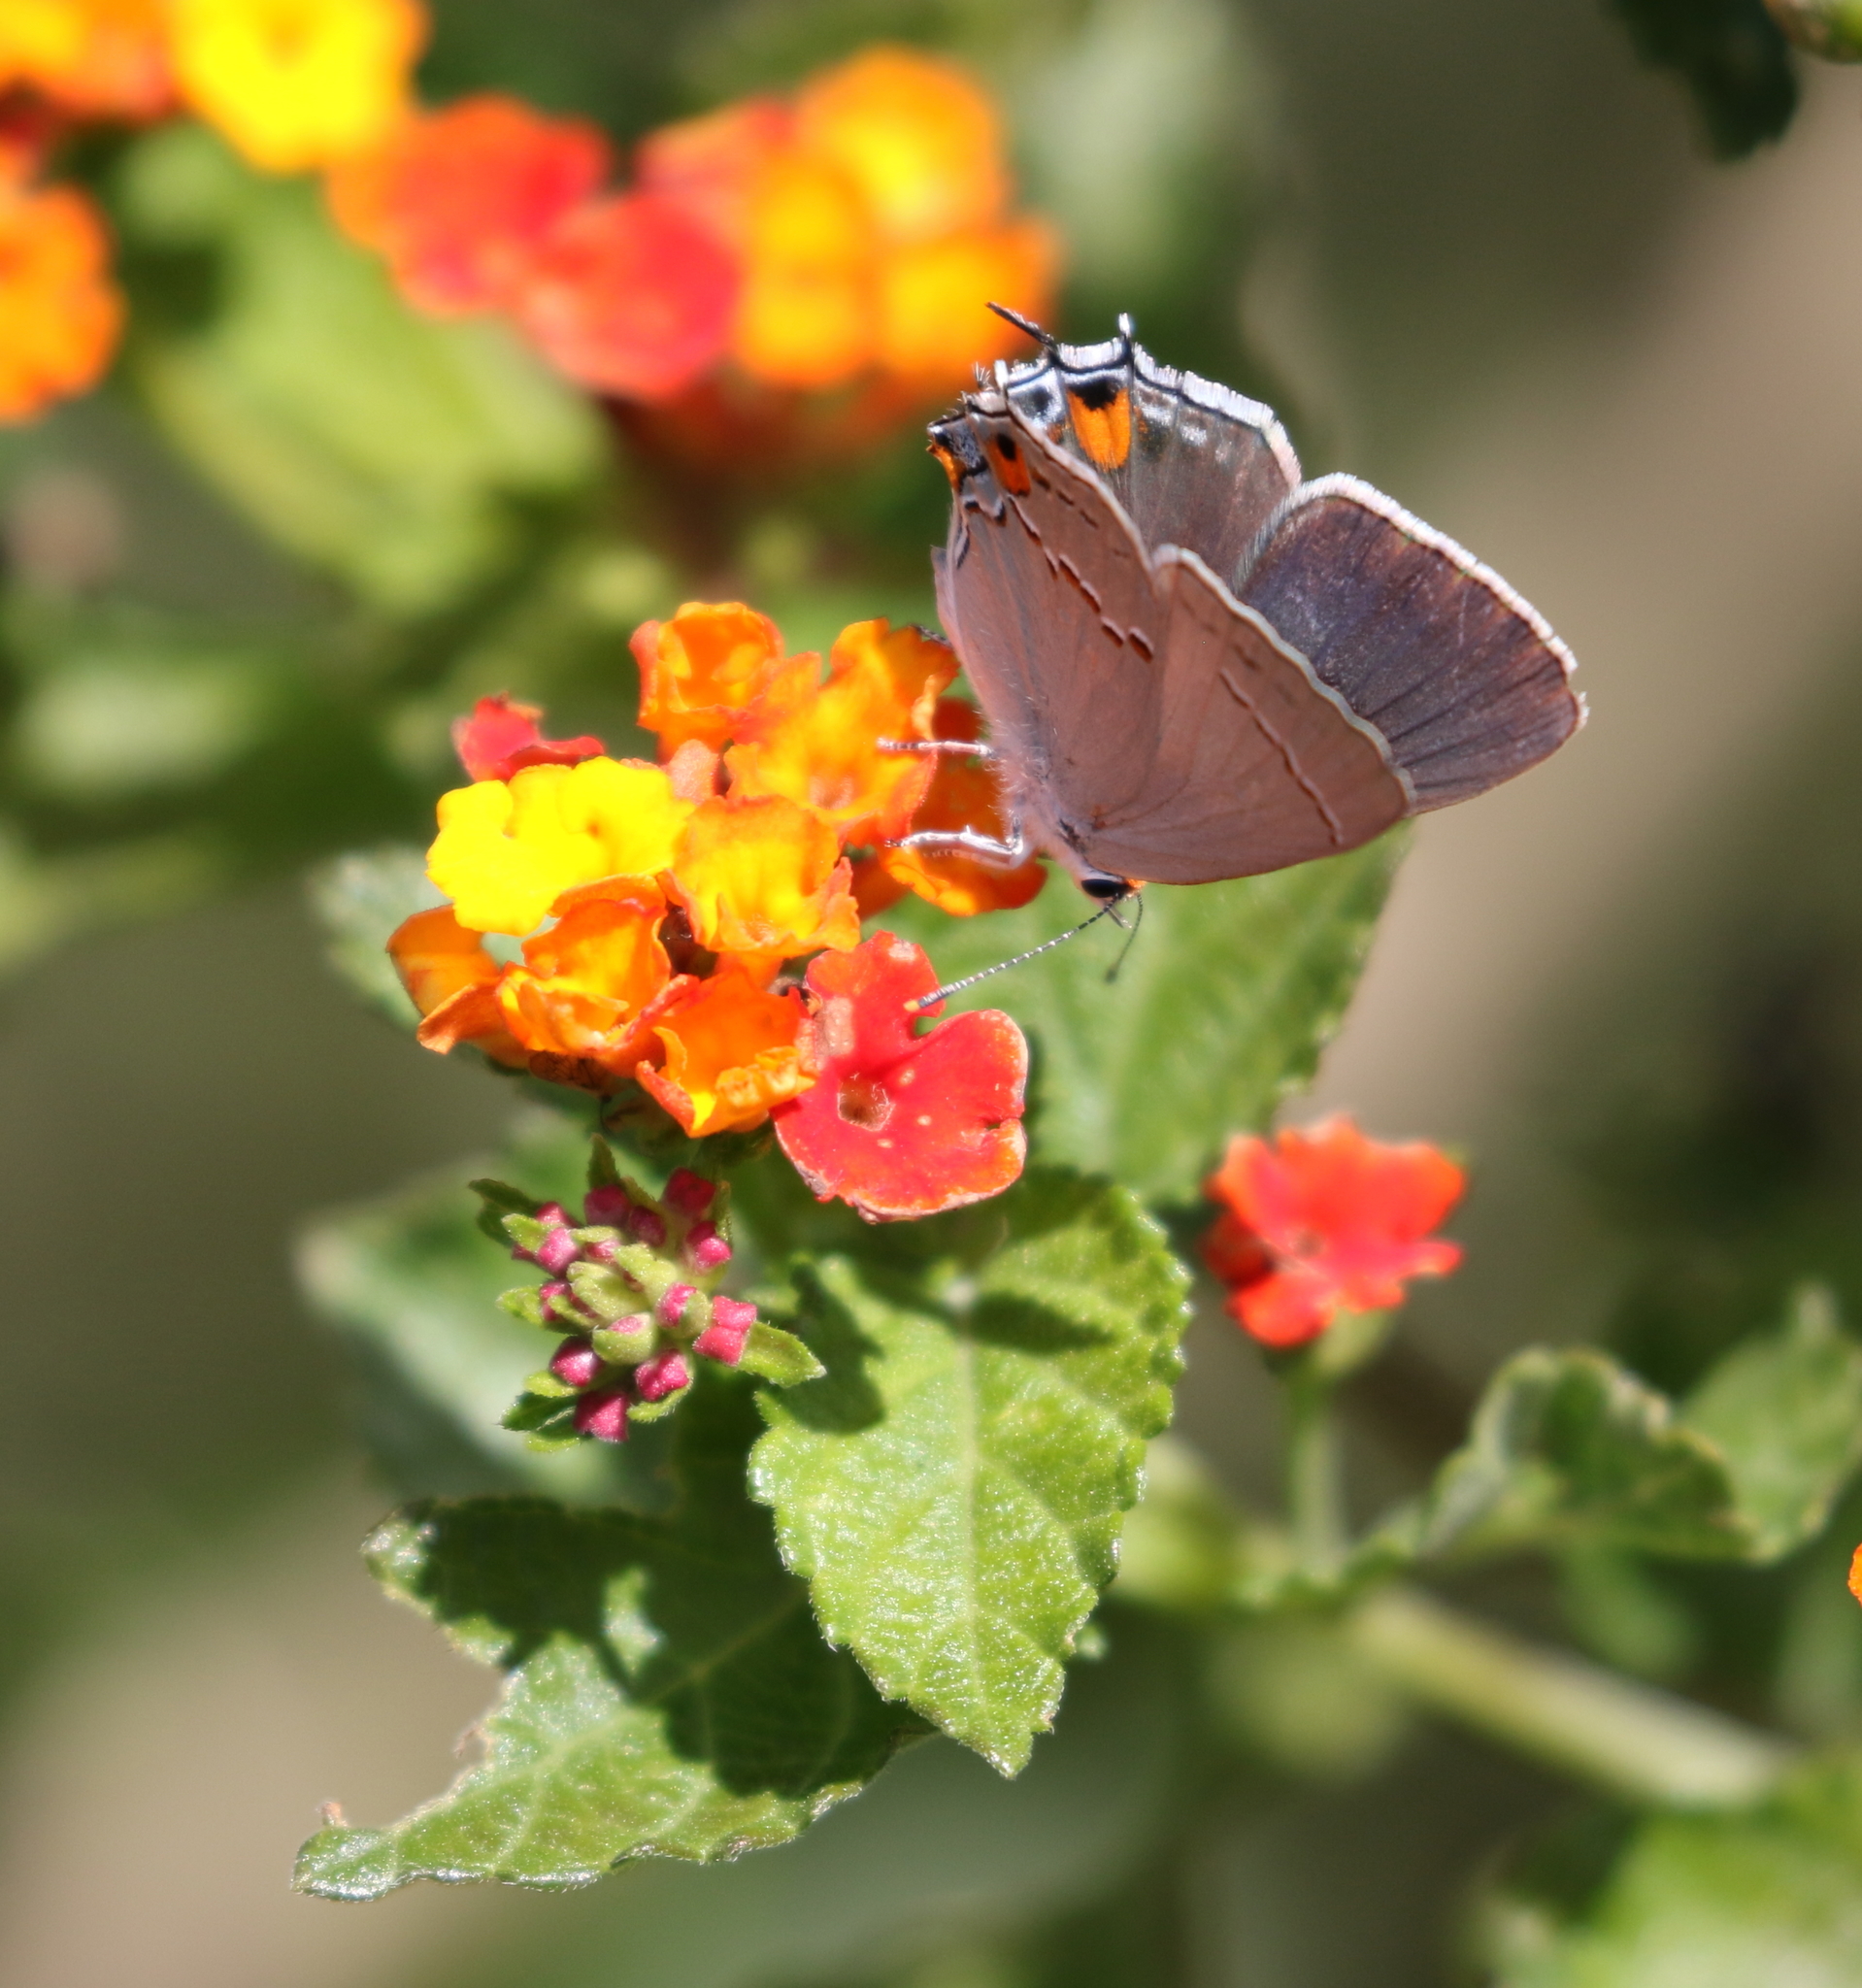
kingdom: Animalia
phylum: Arthropoda
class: Insecta
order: Lepidoptera
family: Lycaenidae
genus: Strymon
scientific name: Strymon melinus
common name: Gray hairstreak
